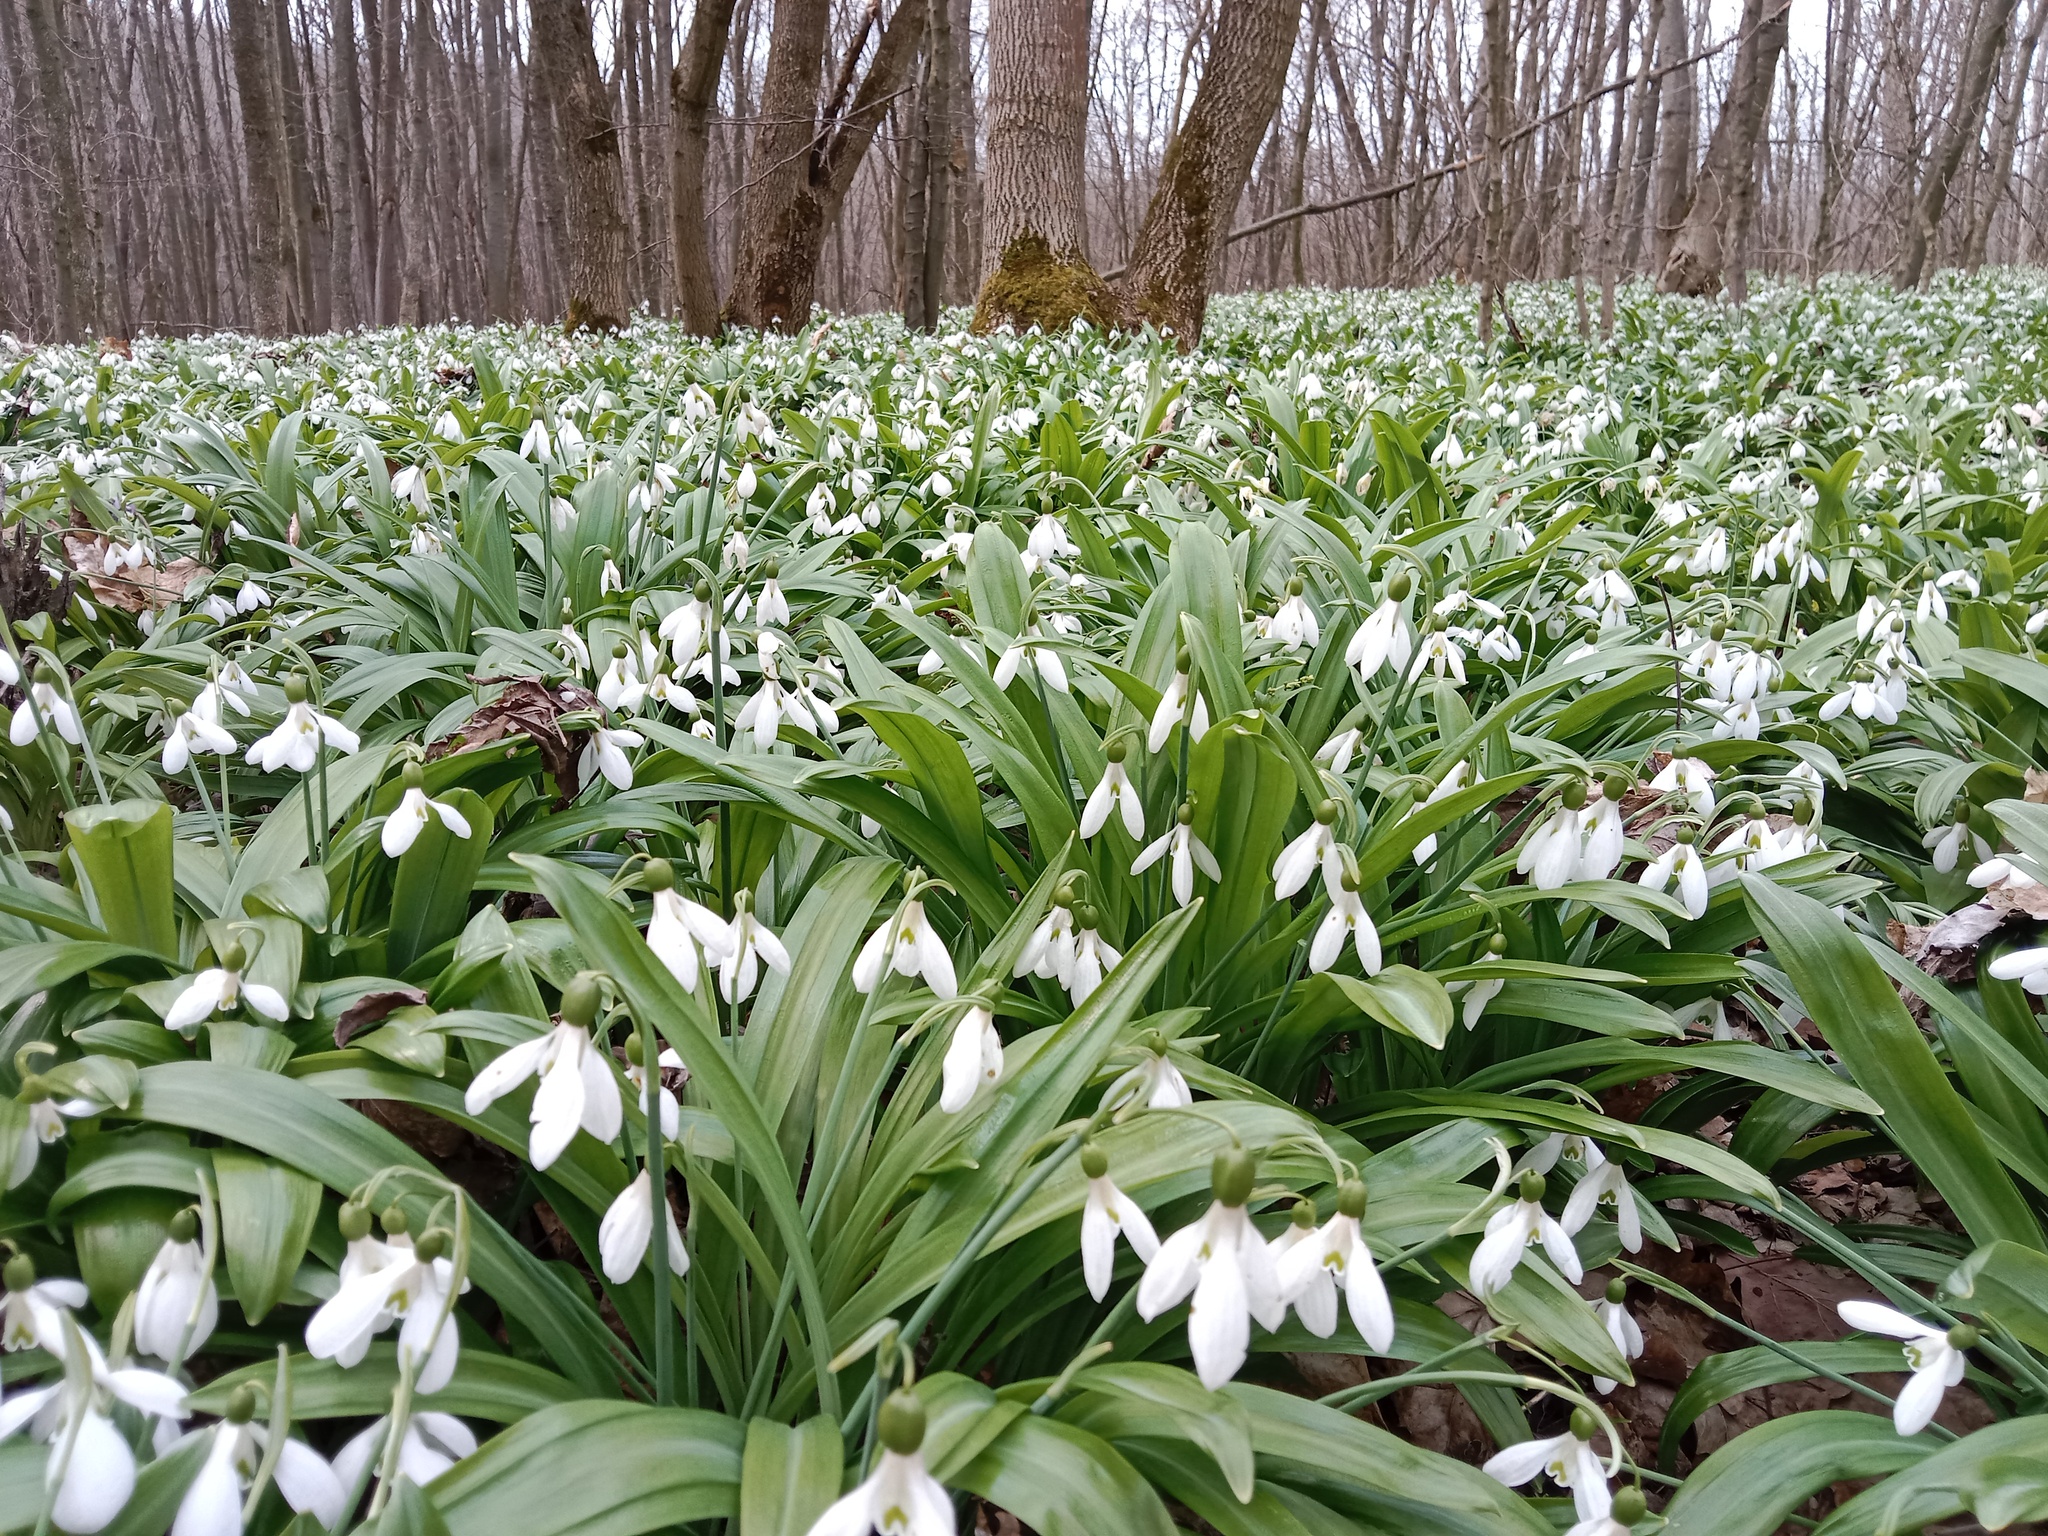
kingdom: Plantae
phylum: Tracheophyta
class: Liliopsida
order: Asparagales
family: Amaryllidaceae
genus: Galanthus
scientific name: Galanthus plicatus
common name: Pleated snowdrop
